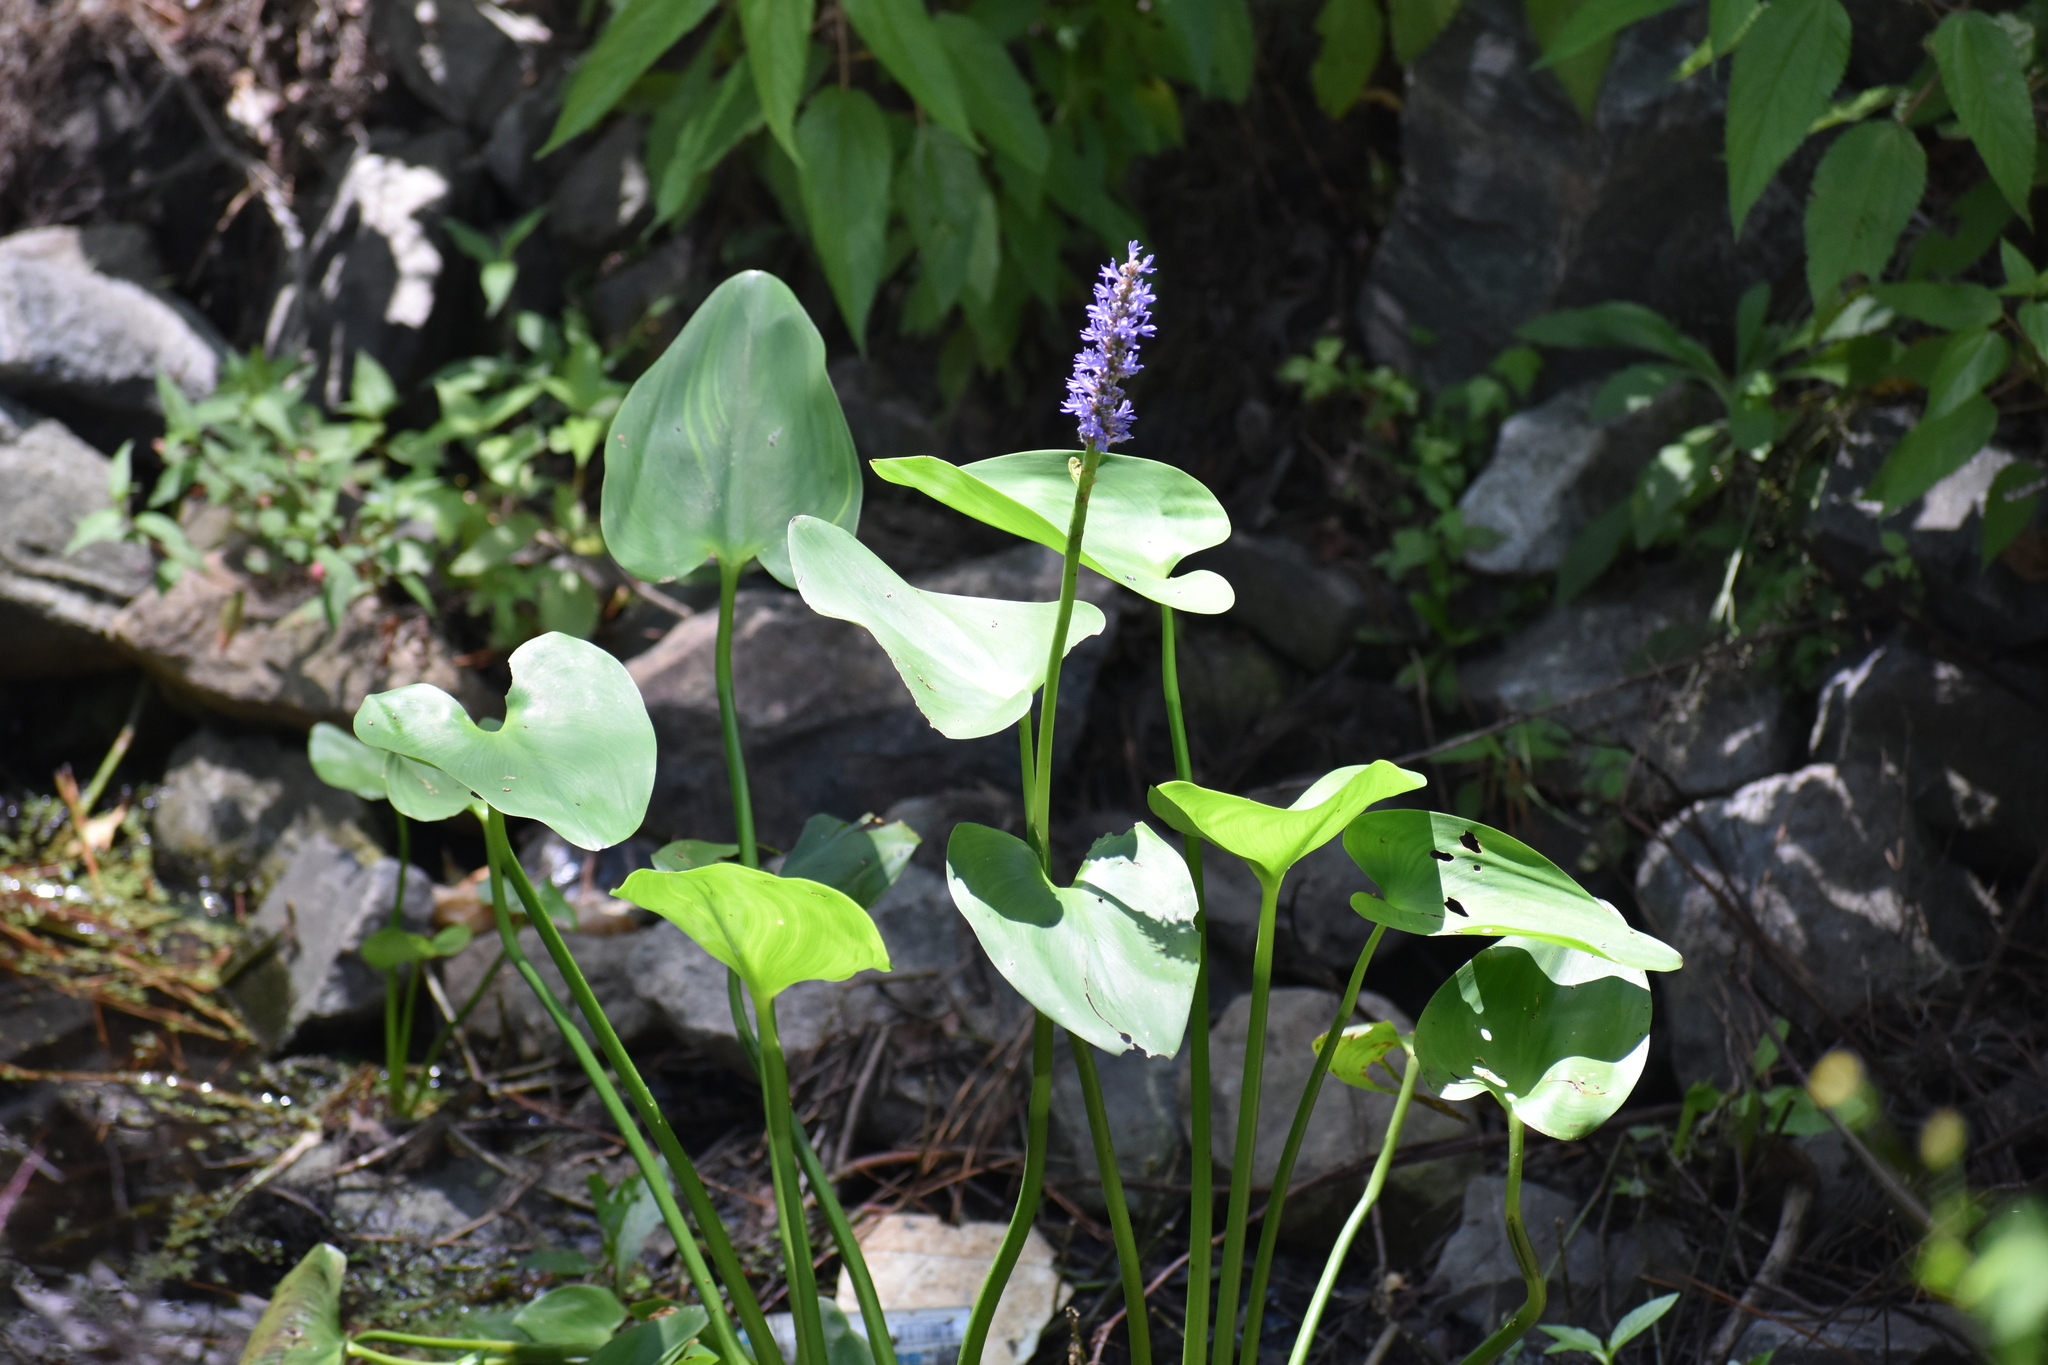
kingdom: Plantae
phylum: Tracheophyta
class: Liliopsida
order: Commelinales
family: Pontederiaceae
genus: Pontederia
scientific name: Pontederia cordata
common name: Pickerelweed
